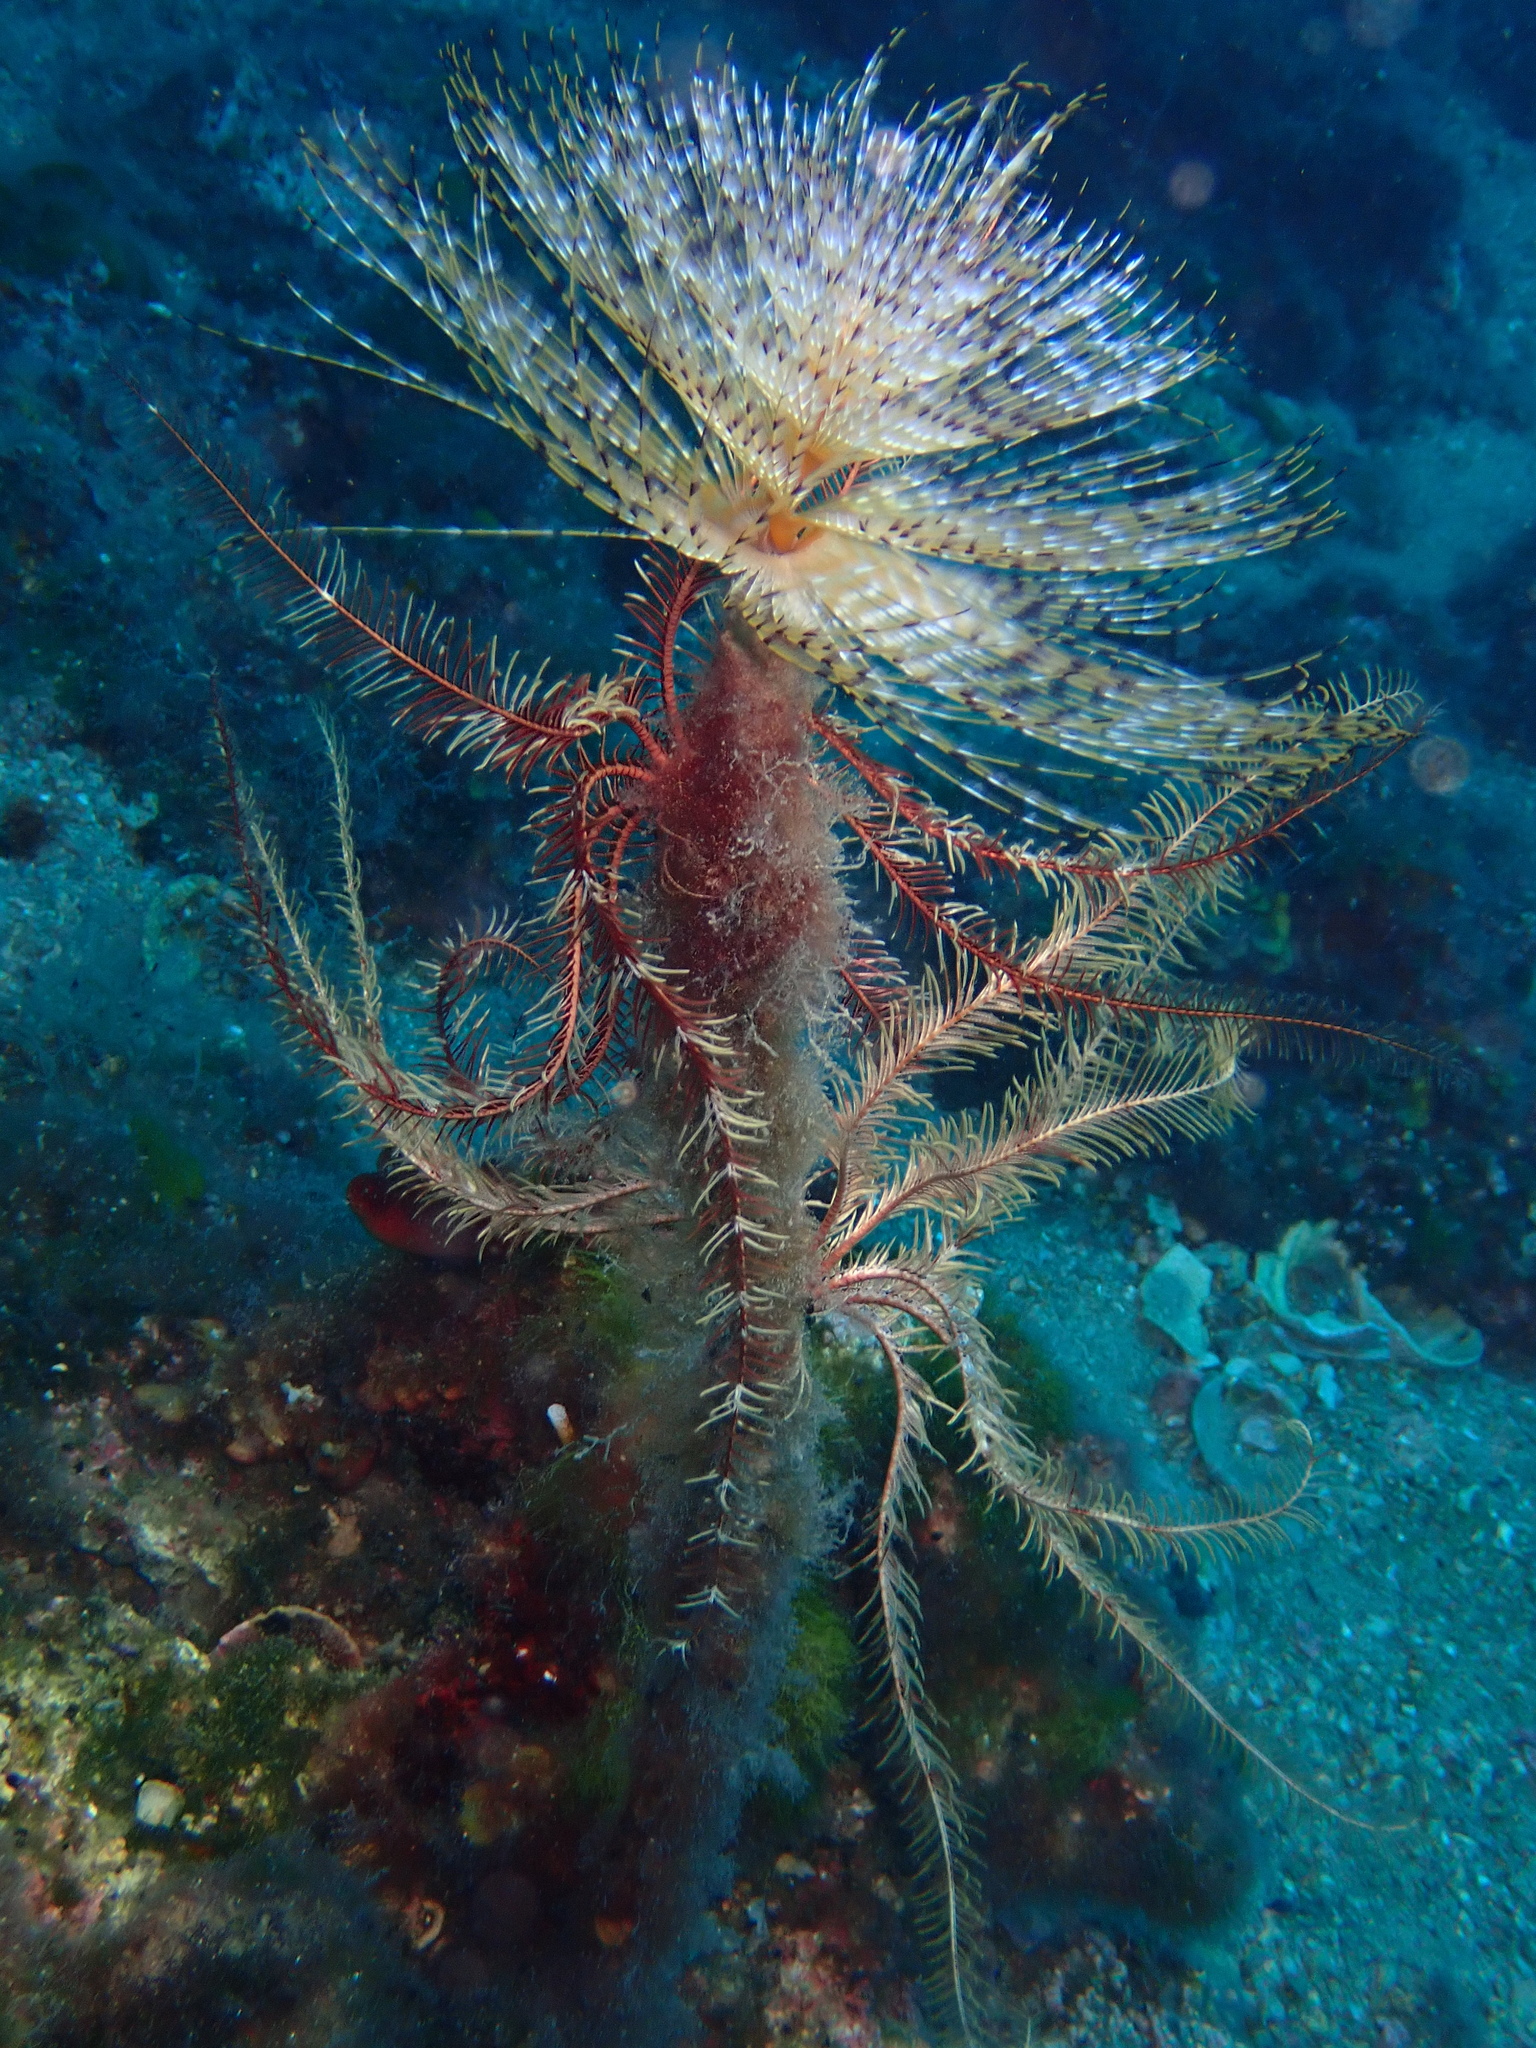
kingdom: Animalia
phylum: Annelida
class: Polychaeta
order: Sabellida
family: Sabellidae
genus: Sabella
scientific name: Sabella spallanzanii
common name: Feather duster worm
